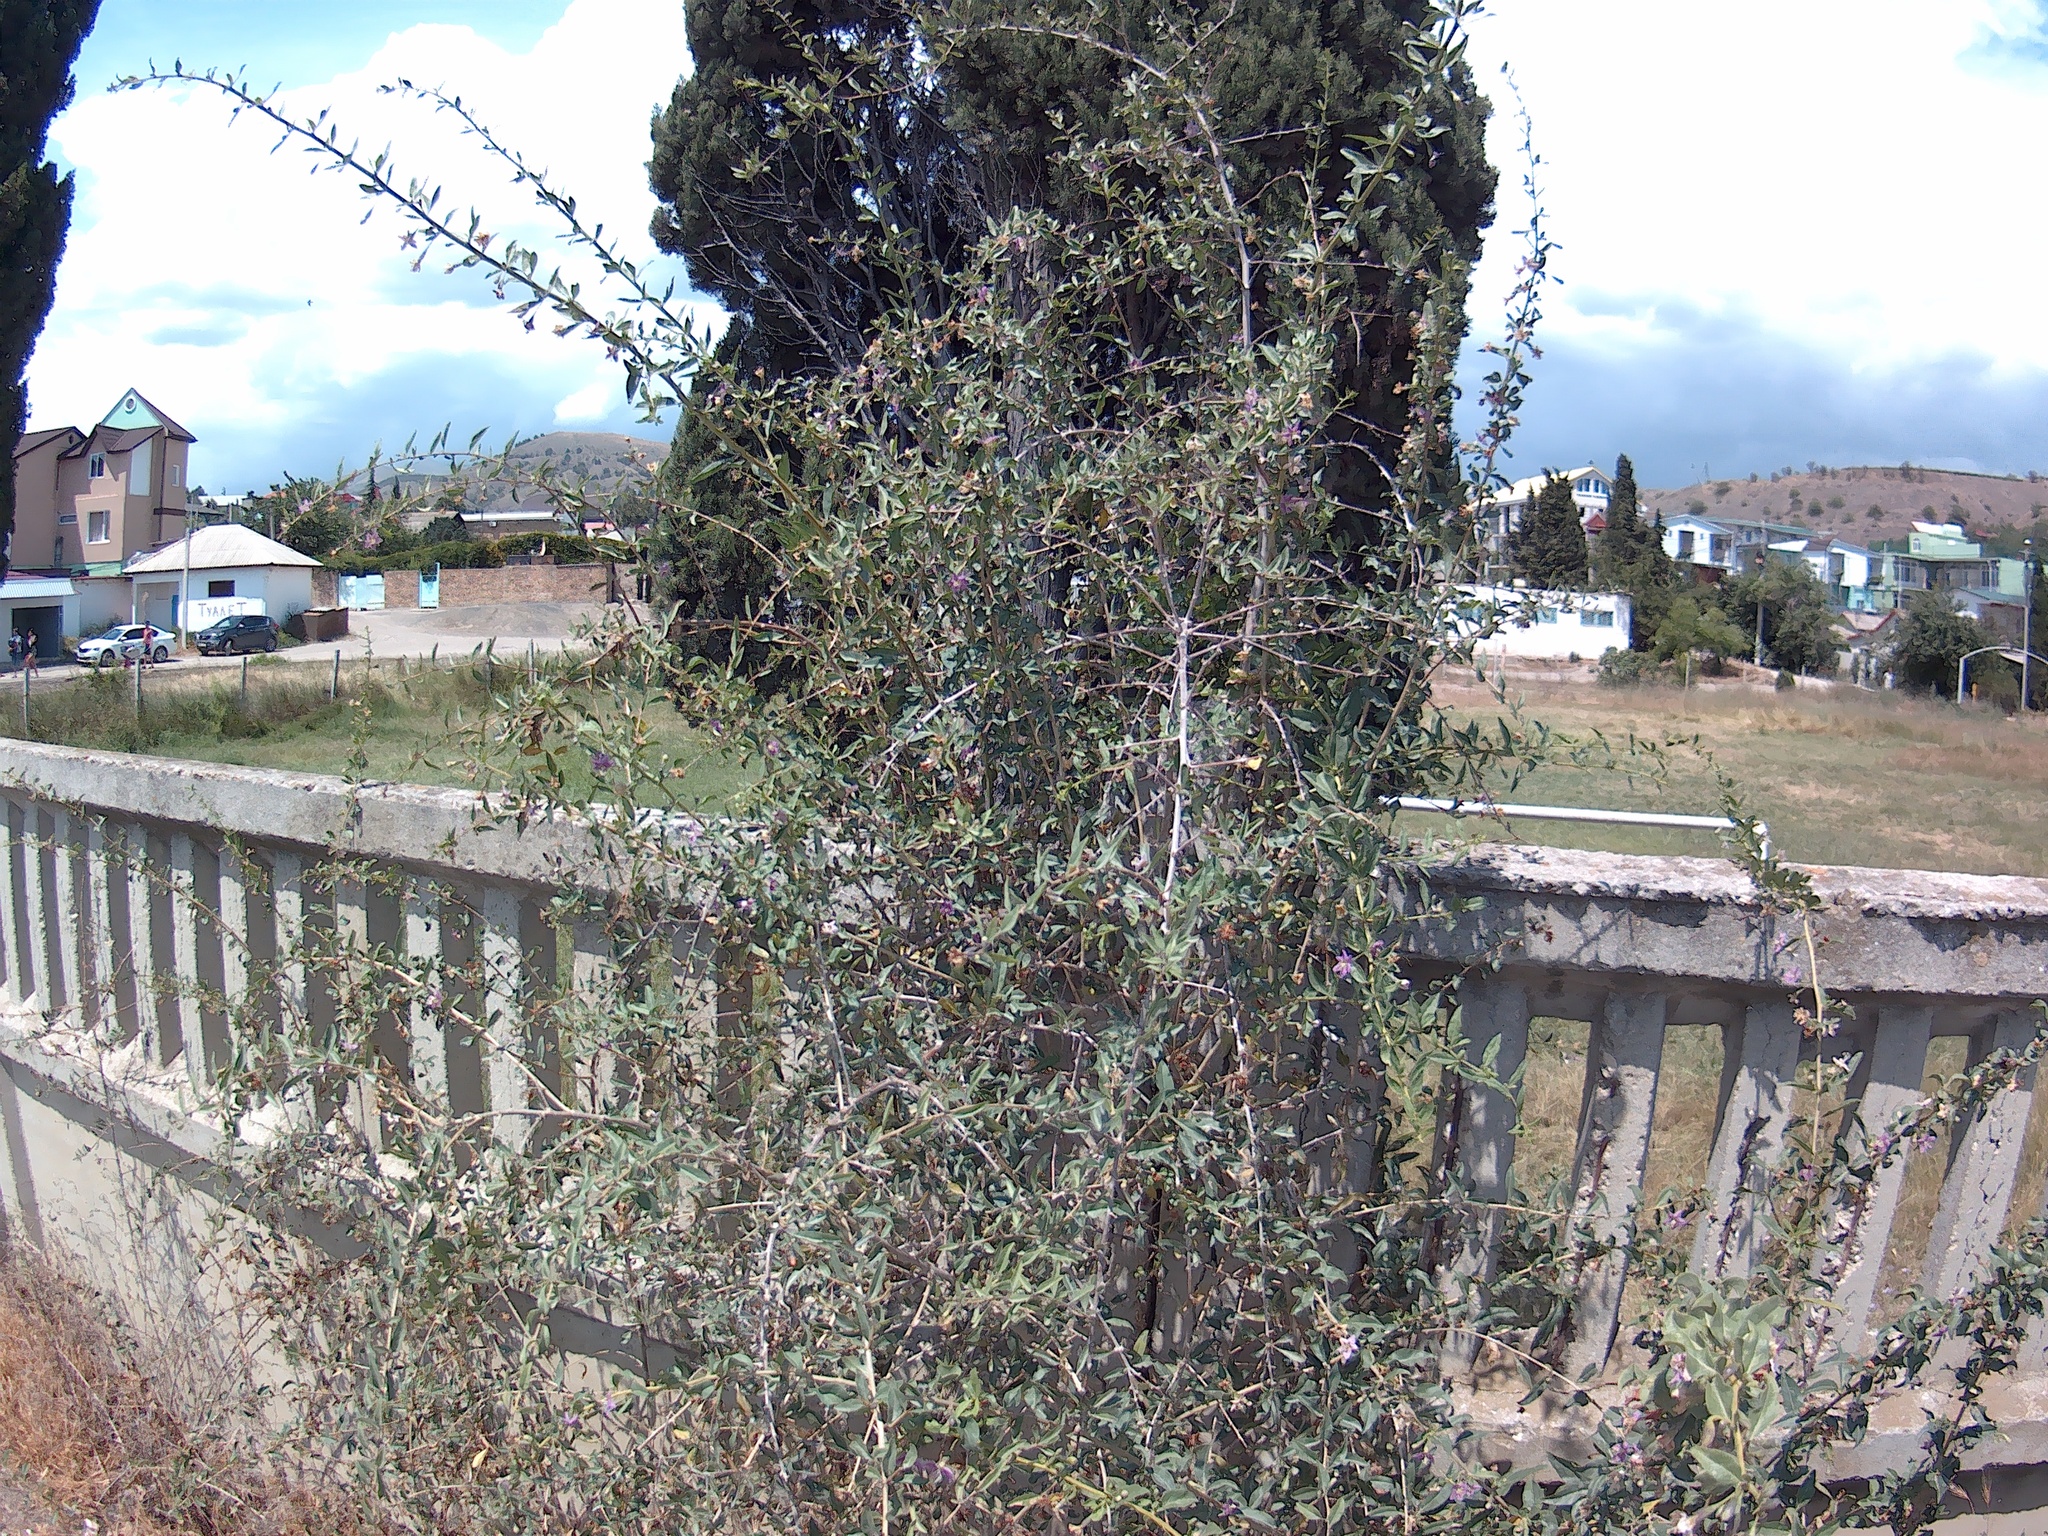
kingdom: Plantae
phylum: Tracheophyta
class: Magnoliopsida
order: Solanales
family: Solanaceae
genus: Lycium
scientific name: Lycium barbarum
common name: Duke of argyll's teaplant
